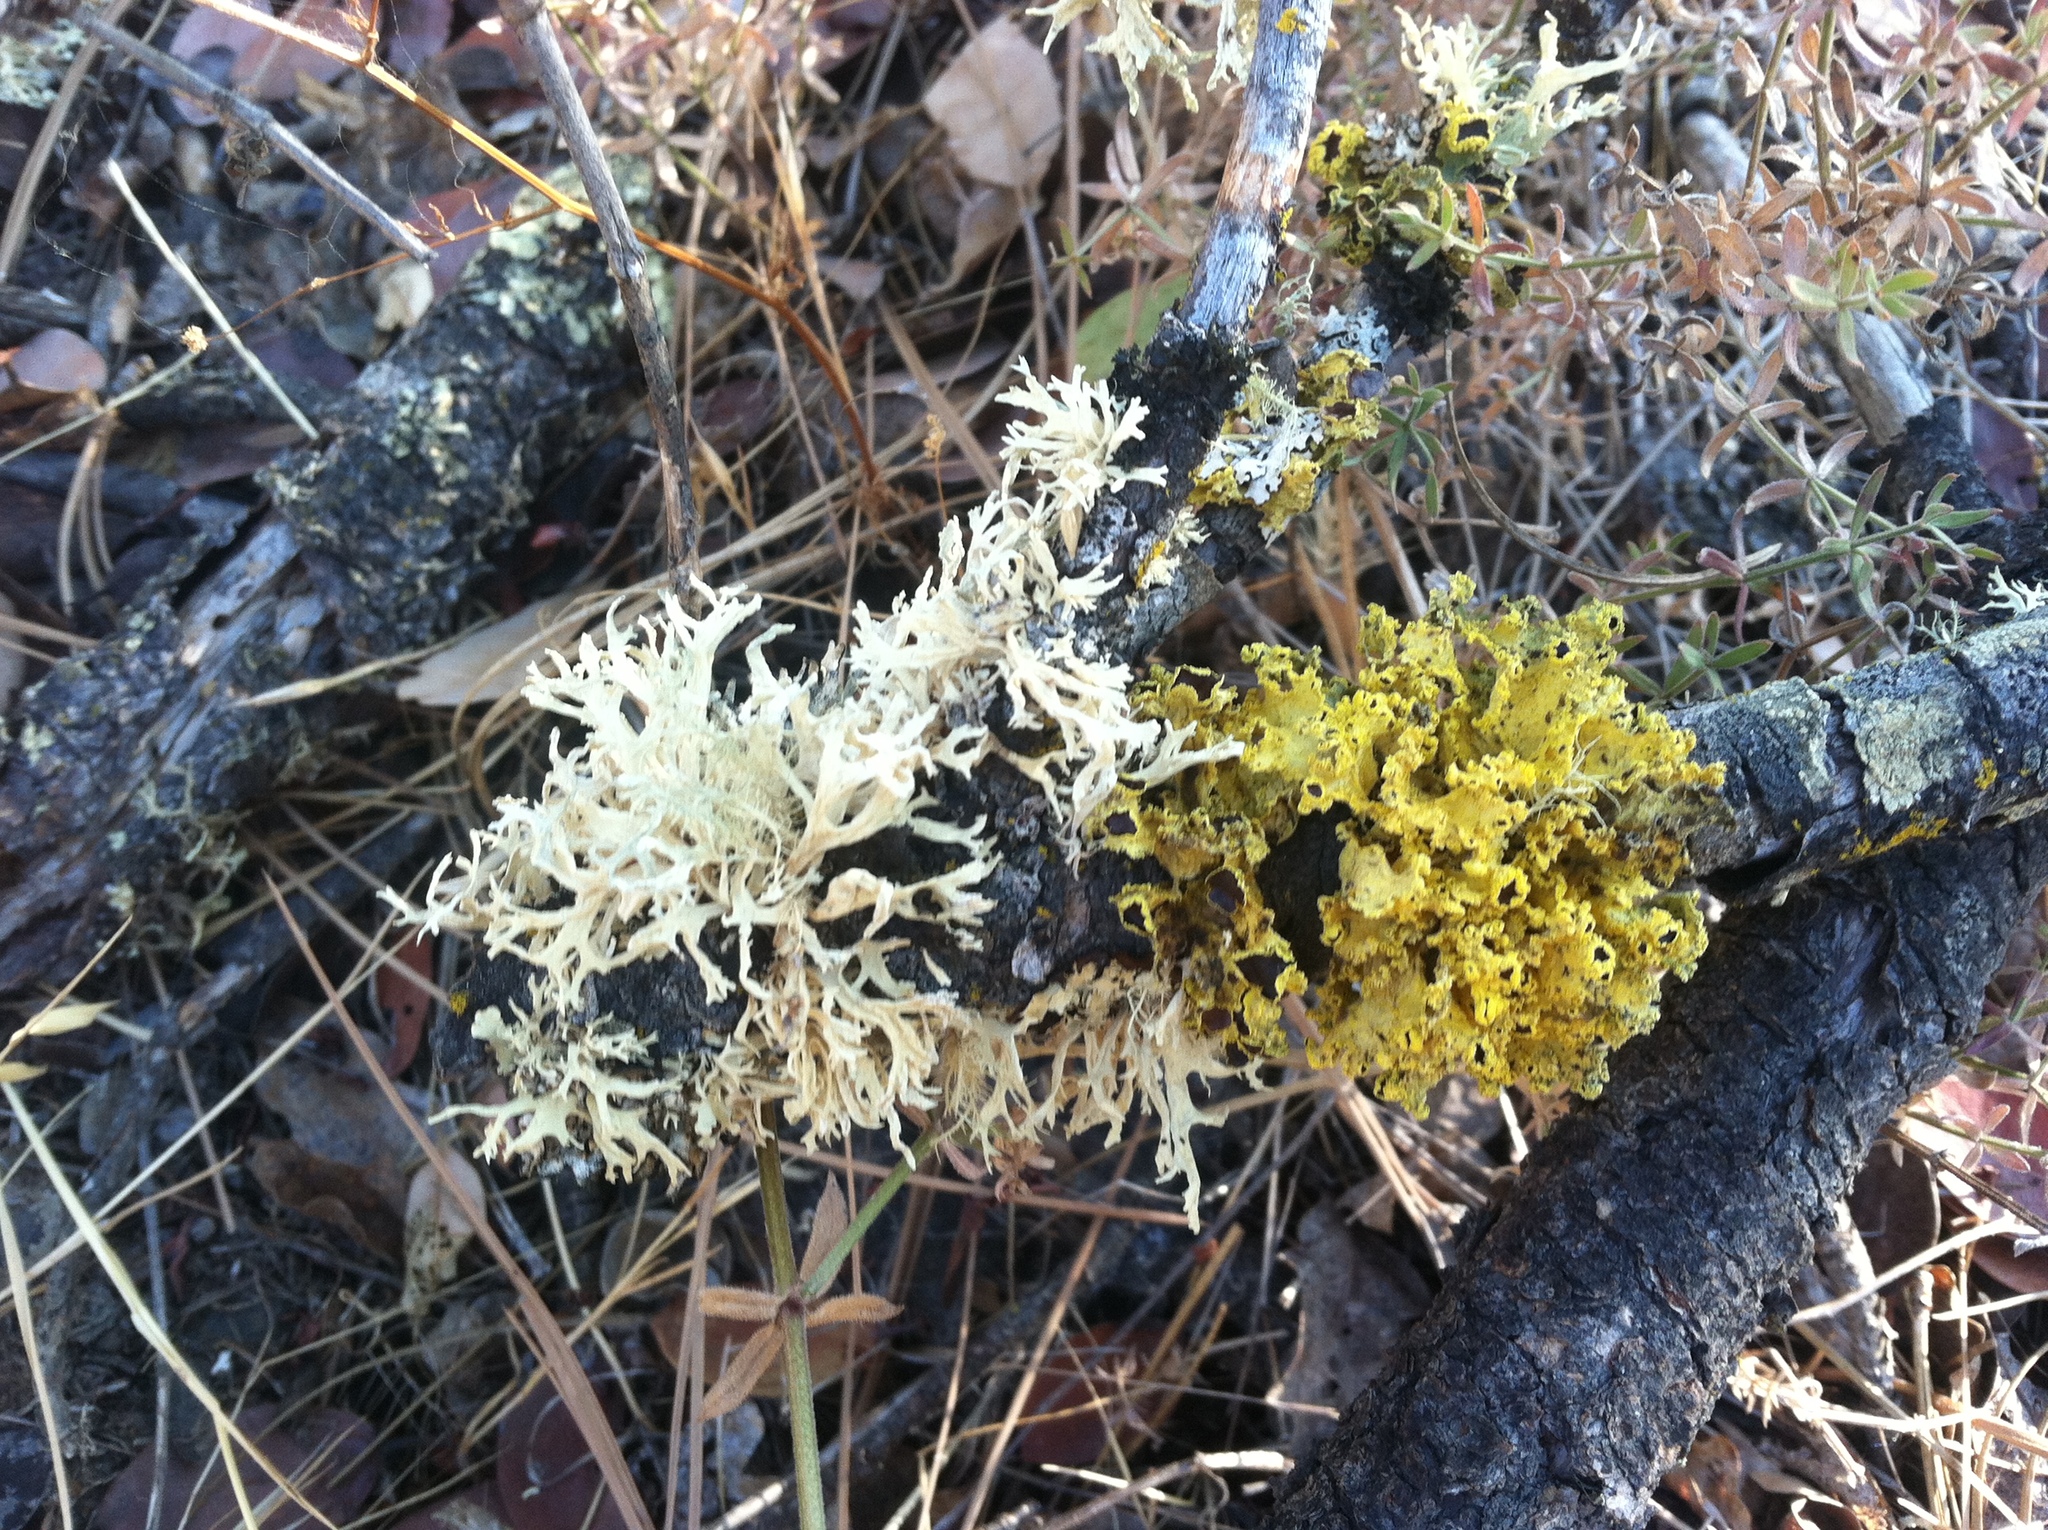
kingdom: Fungi
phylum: Ascomycota
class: Lecanoromycetes
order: Lecanorales
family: Parmeliaceae
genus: Vulpicida
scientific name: Vulpicida canadensis
